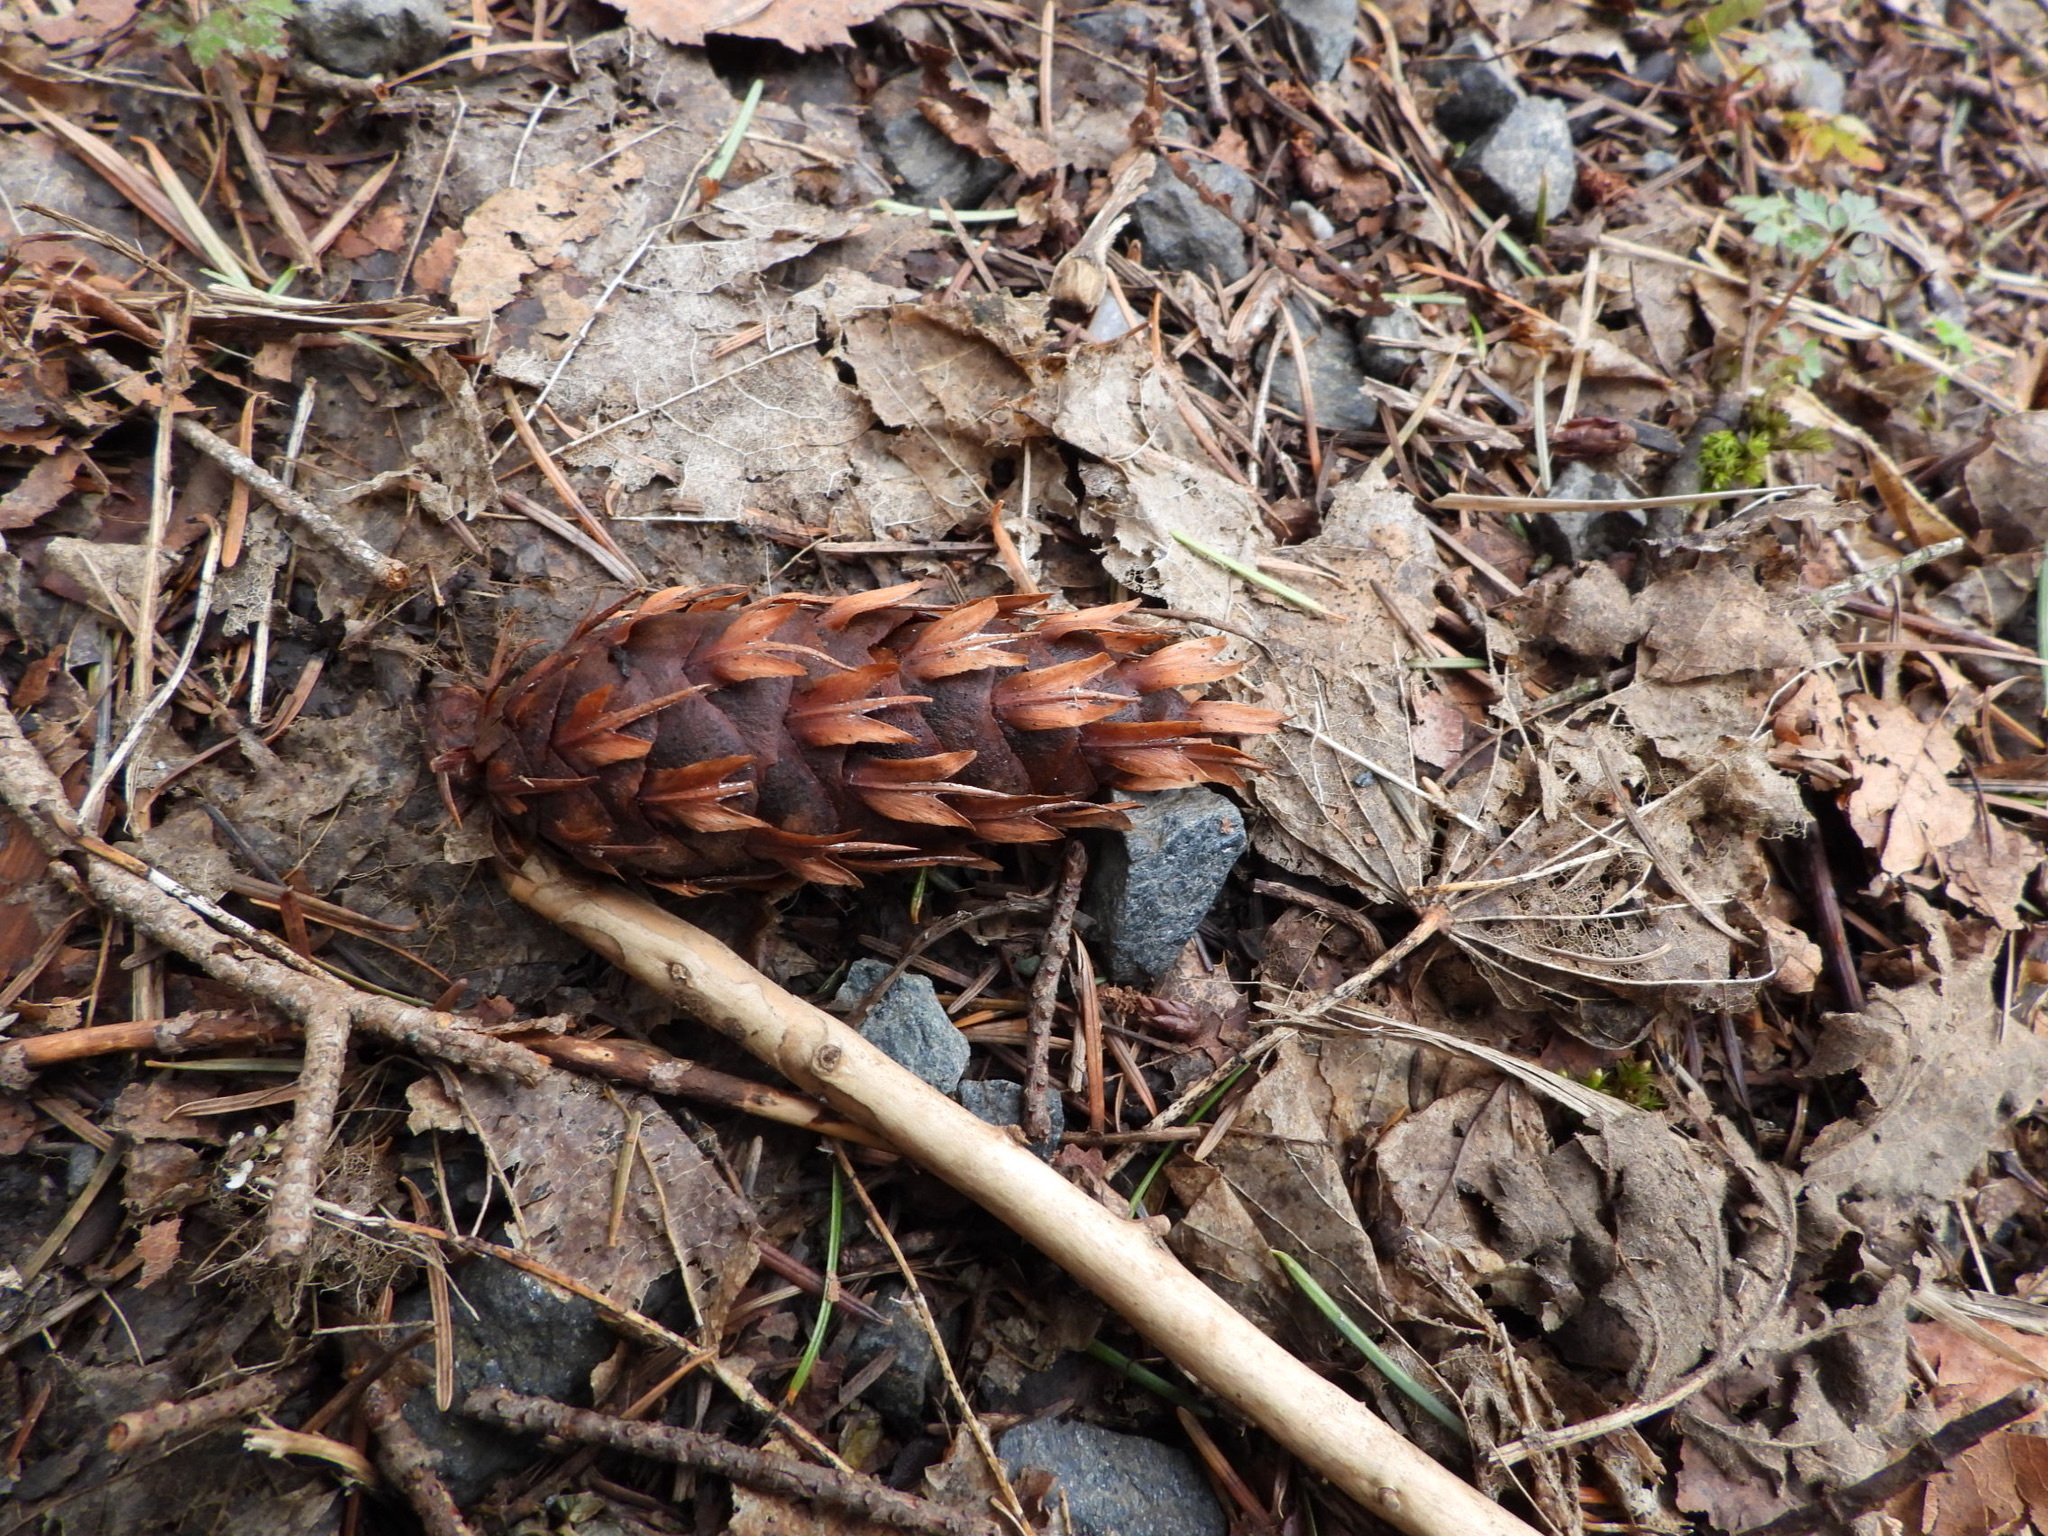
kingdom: Plantae
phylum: Tracheophyta
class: Pinopsida
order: Pinales
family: Pinaceae
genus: Pseudotsuga
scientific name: Pseudotsuga menziesii
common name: Douglas fir
